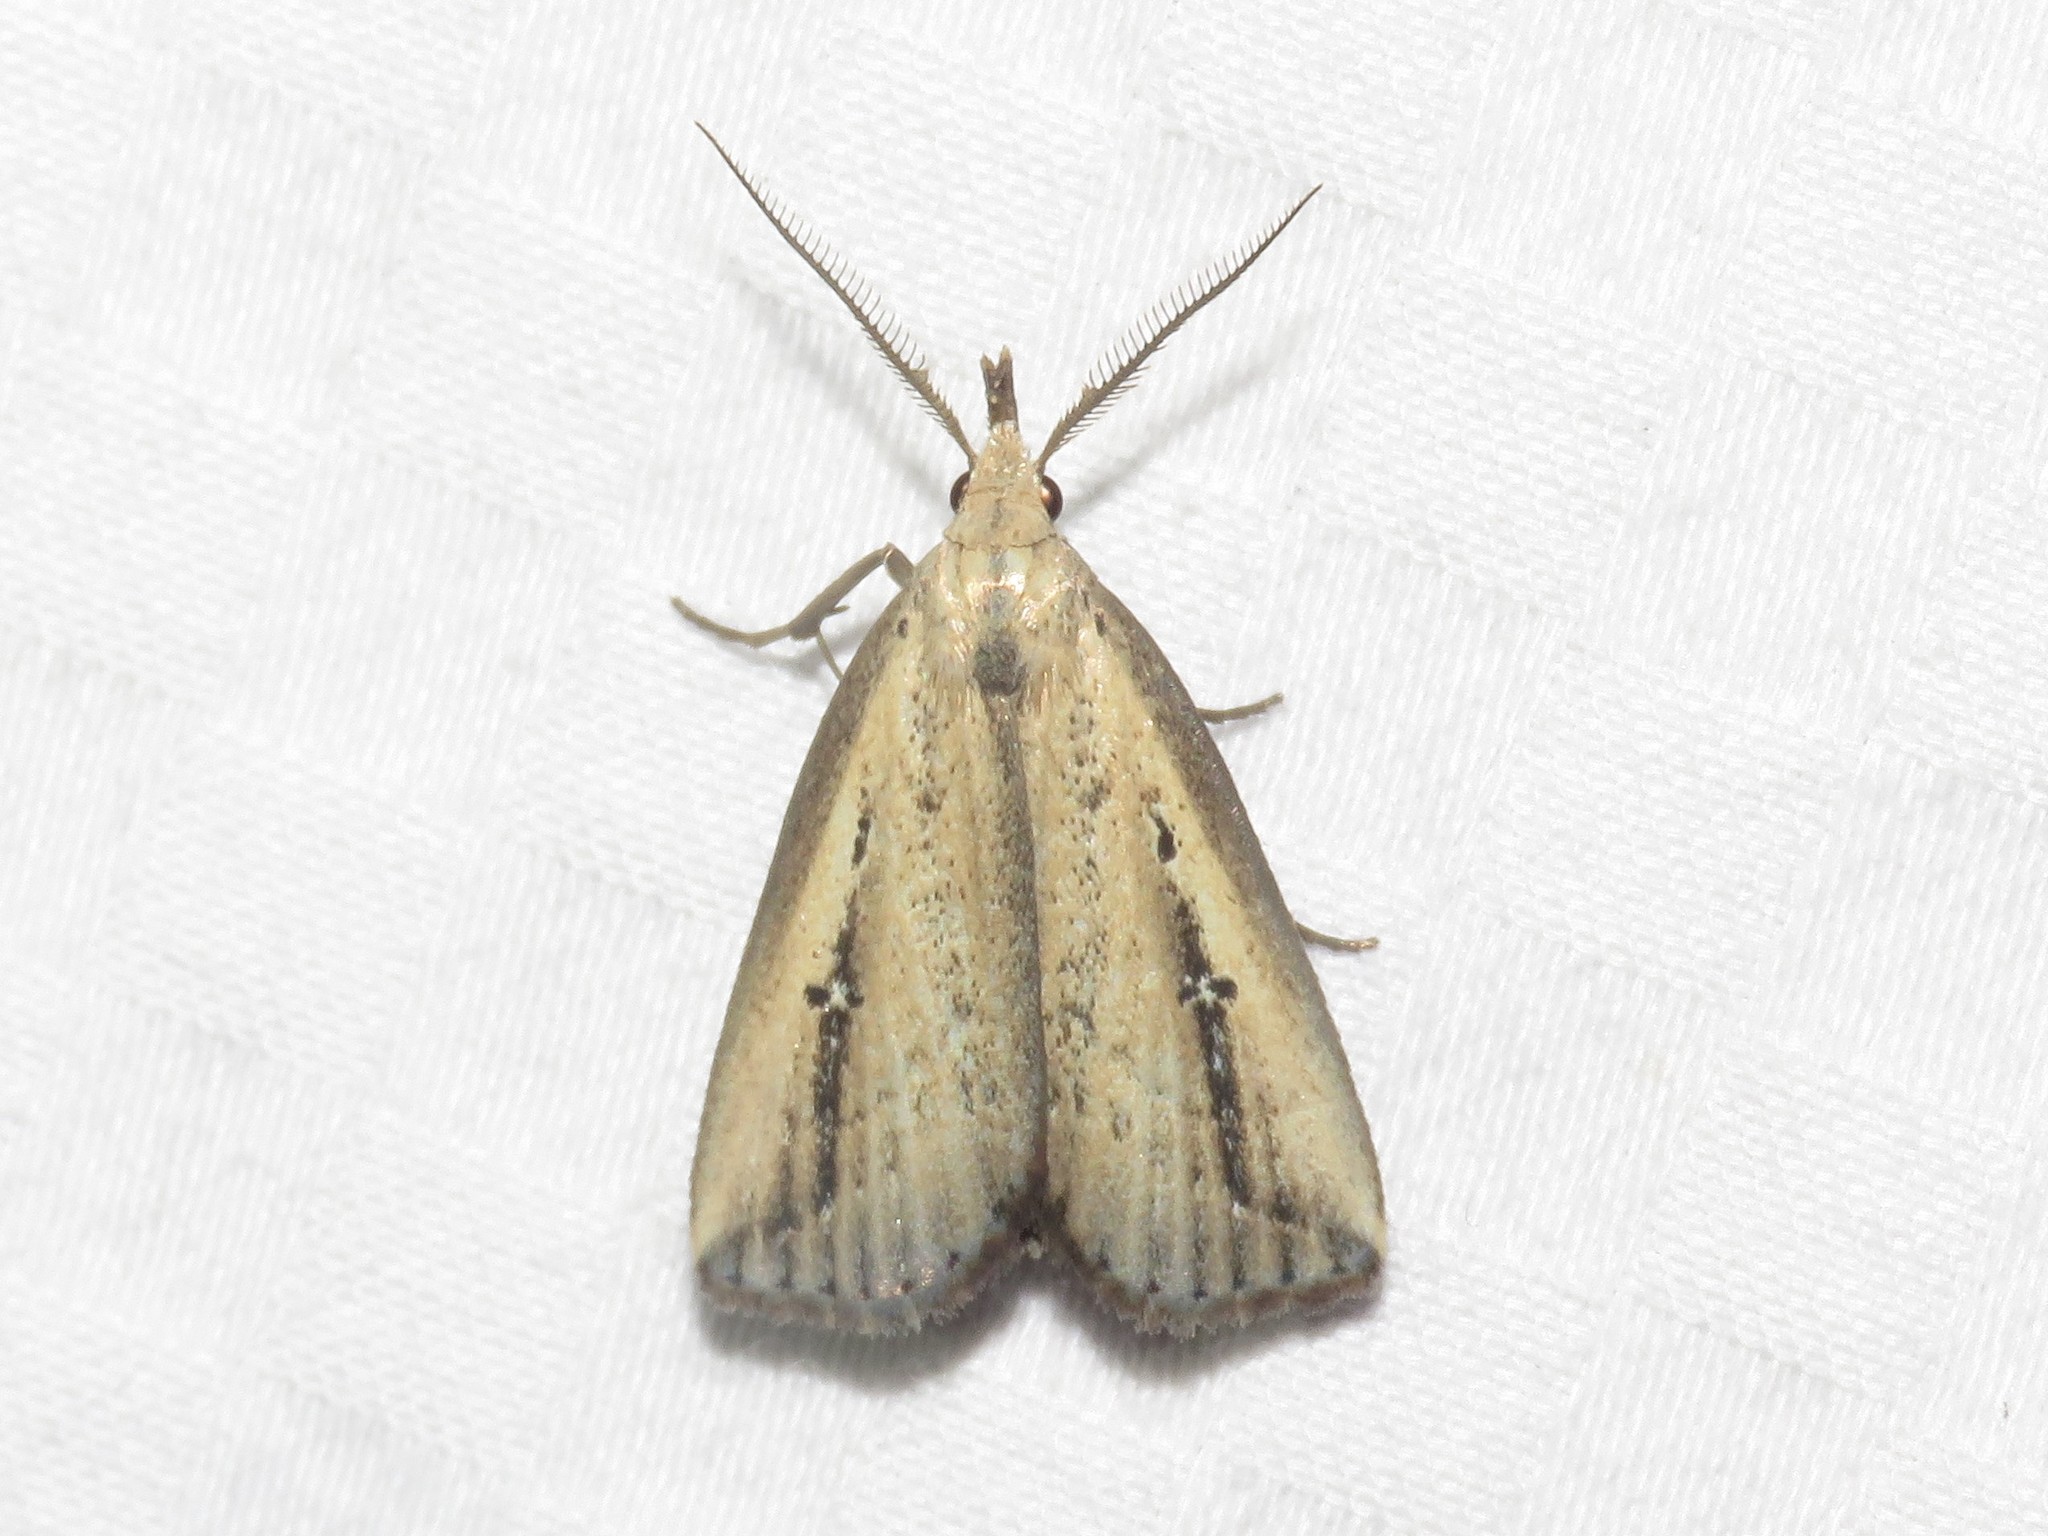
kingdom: Animalia
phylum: Arthropoda
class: Insecta
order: Lepidoptera
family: Erebidae
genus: Macrochilo
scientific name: Macrochilo orciferalis
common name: Bronzy owlet
